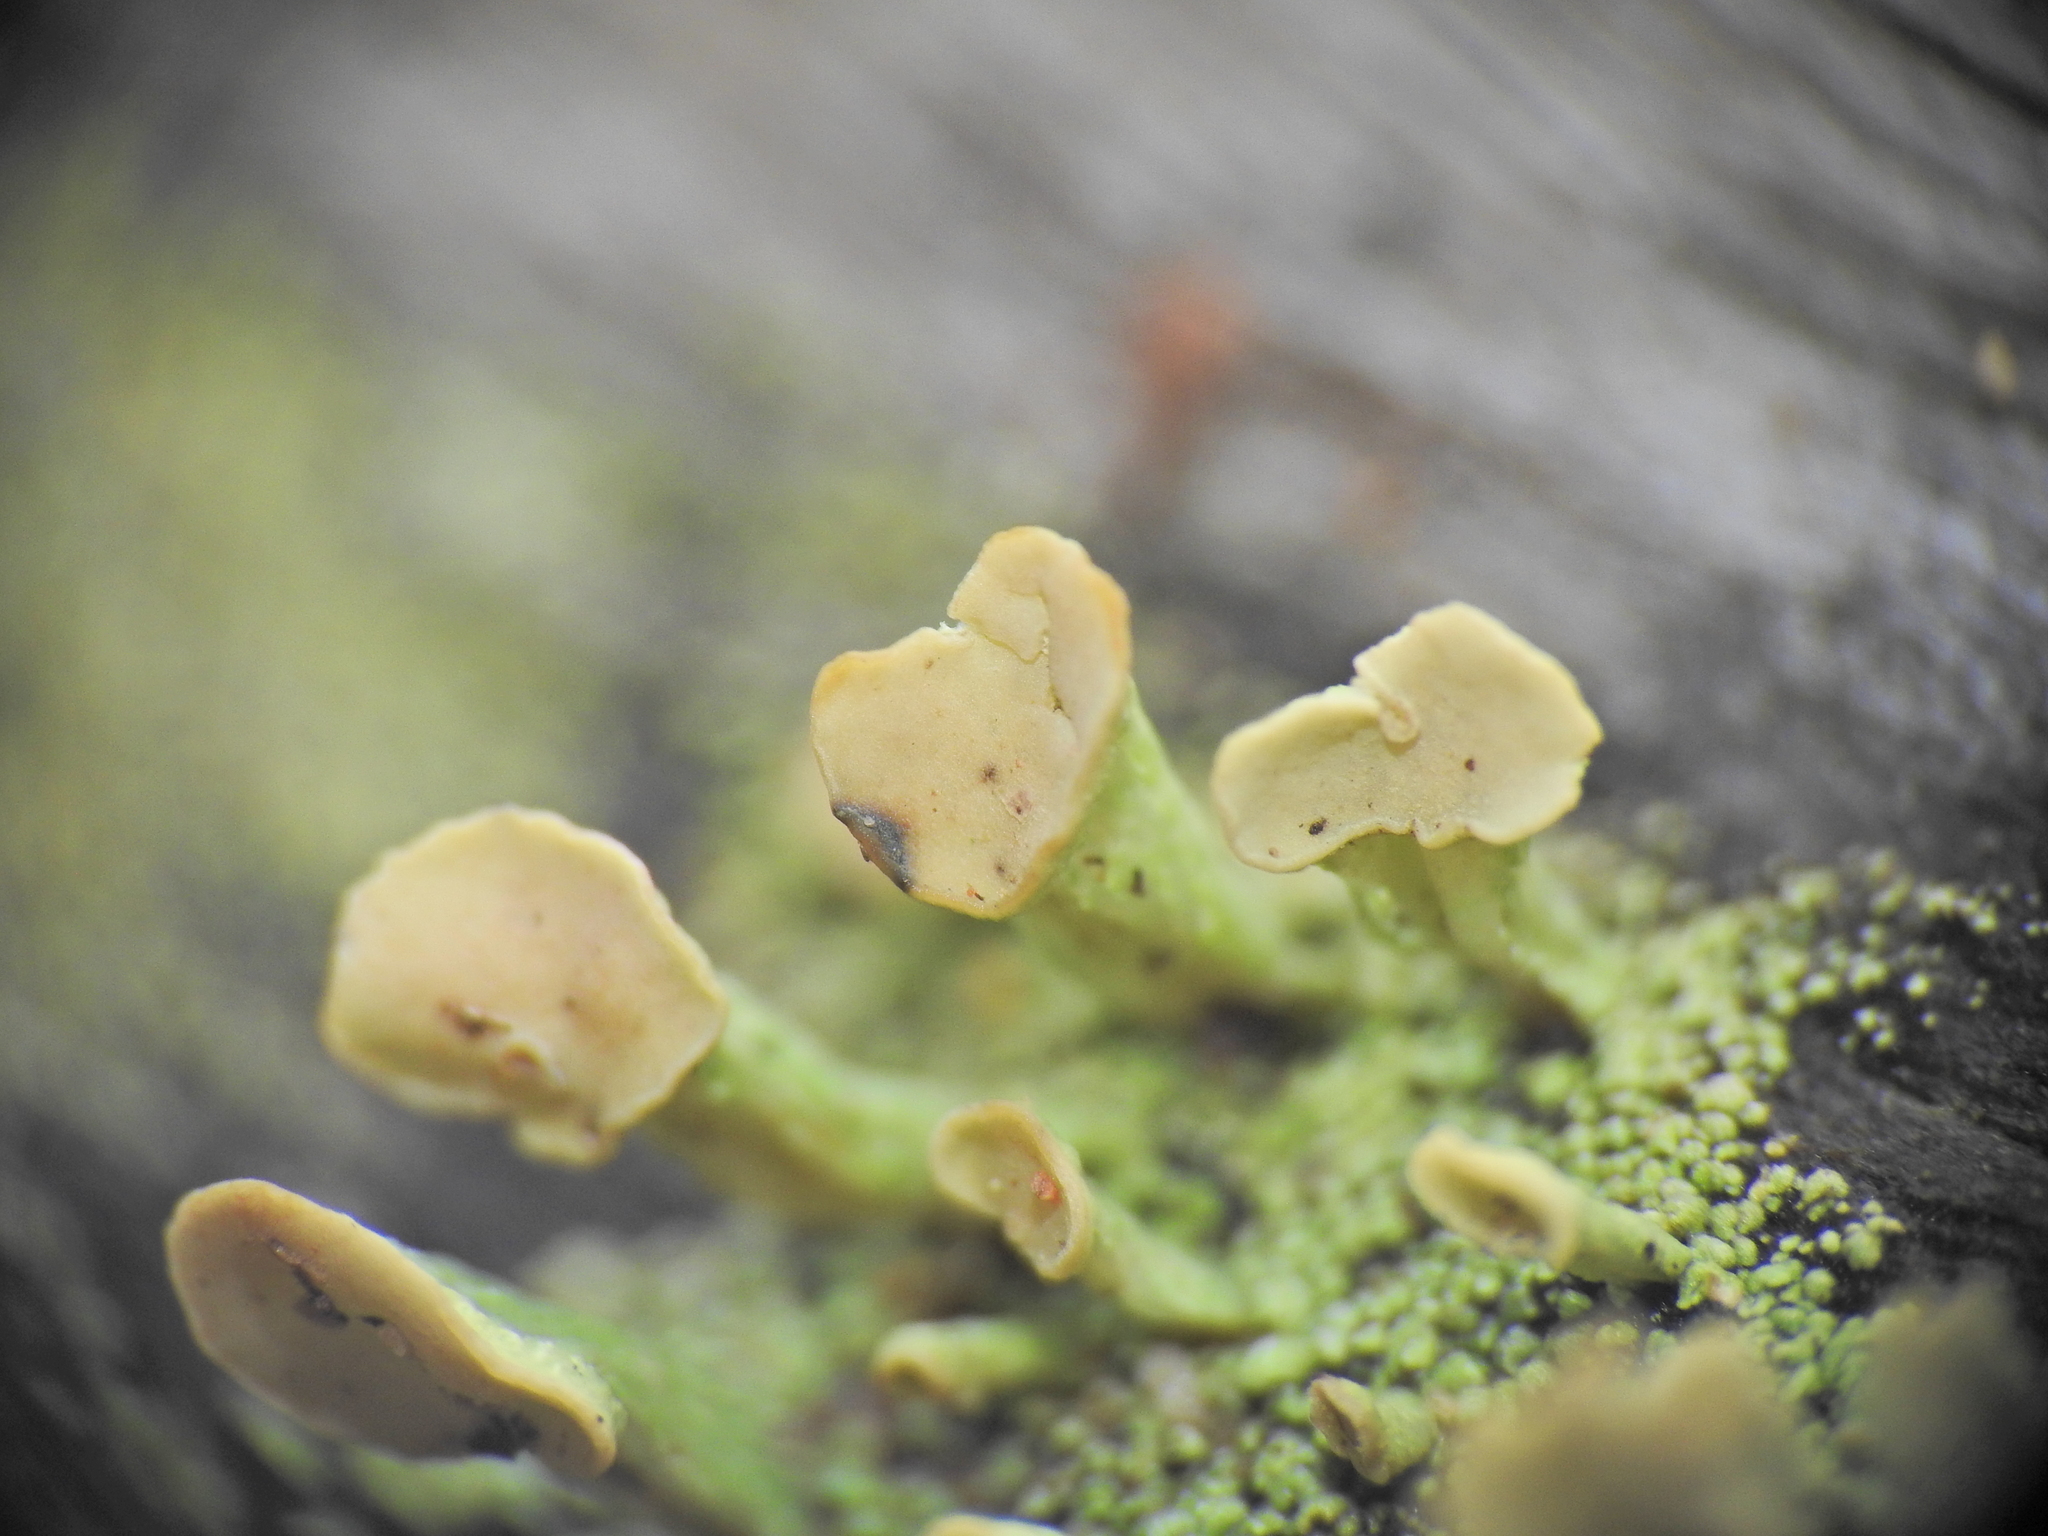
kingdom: Fungi
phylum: Ascomycota
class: Lecanoromycetes
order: Lecanorales
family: Cladoniaceae
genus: Thysanothecium
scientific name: Thysanothecium scutellatum
